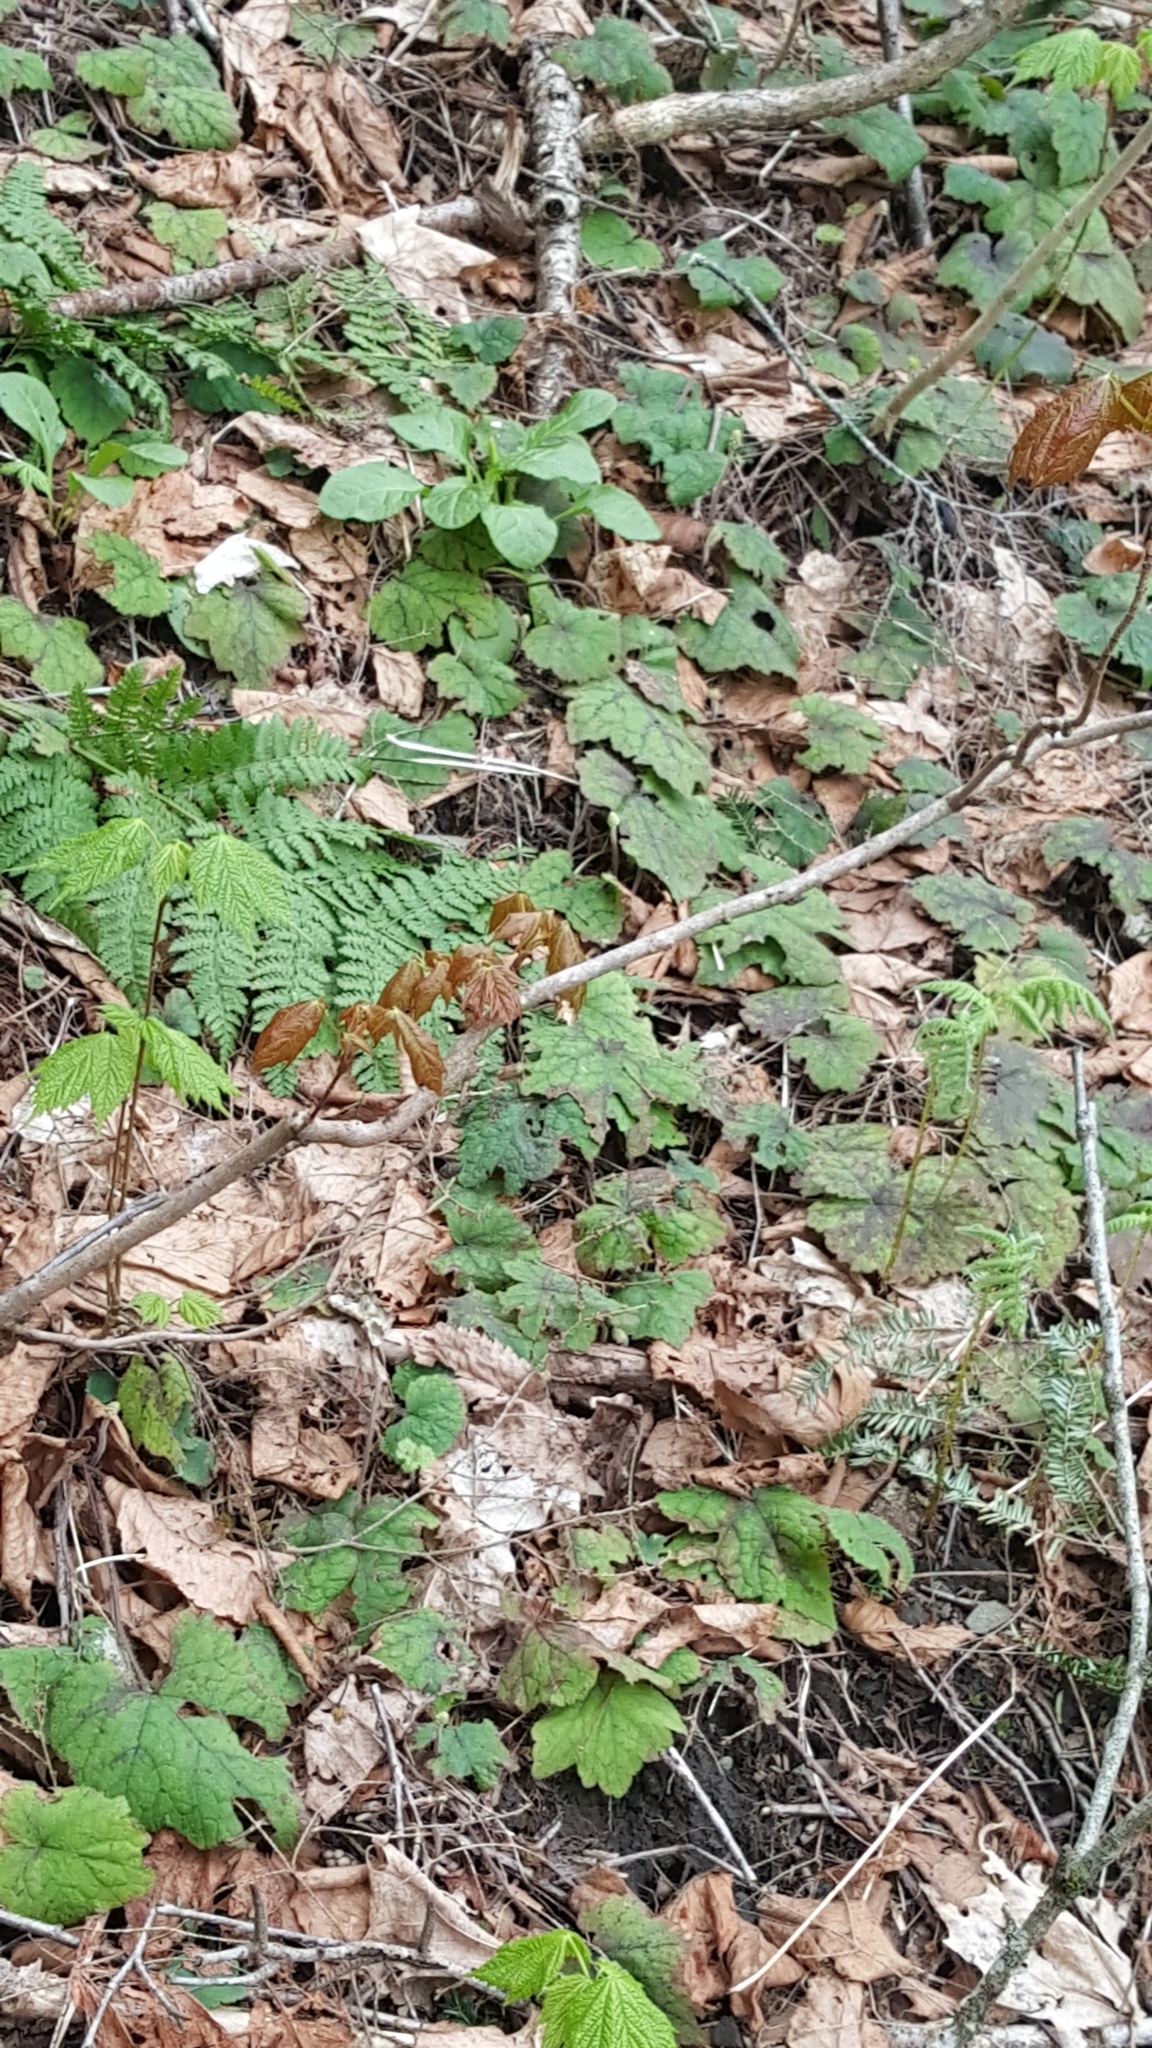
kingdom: Plantae
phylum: Tracheophyta
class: Magnoliopsida
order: Saxifragales
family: Saxifragaceae
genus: Tiarella
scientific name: Tiarella stolonifera
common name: Stoloniferous foamflower
